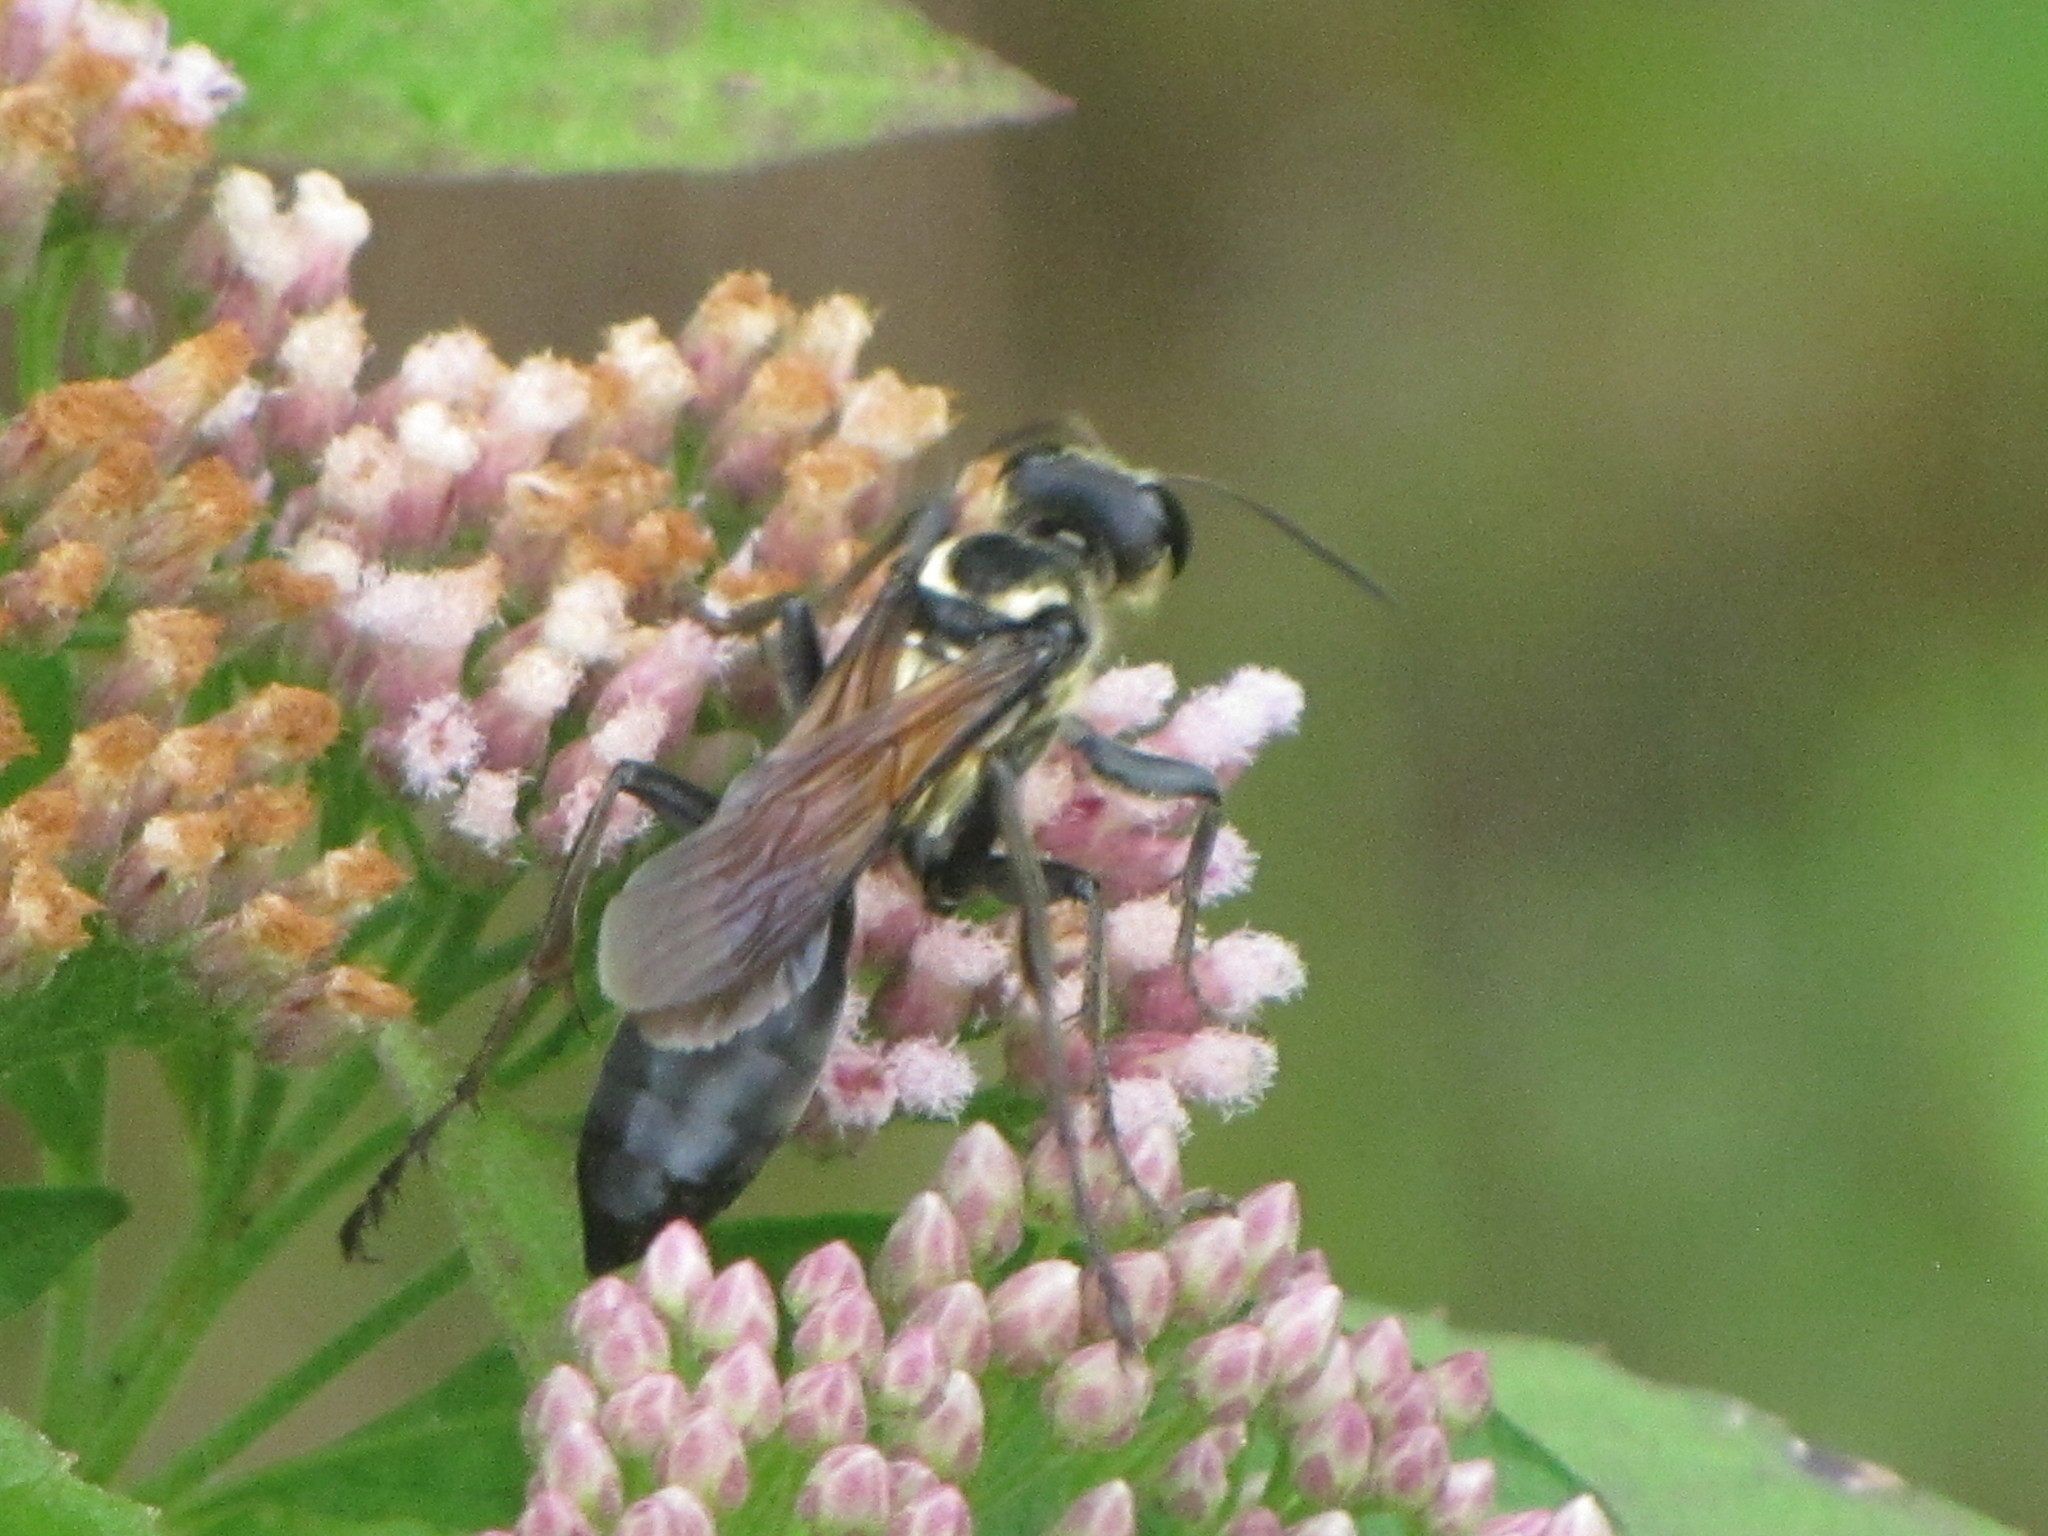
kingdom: Animalia
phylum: Arthropoda
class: Insecta
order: Hymenoptera
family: Sphecidae
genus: Sphex
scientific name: Sphex habenus
